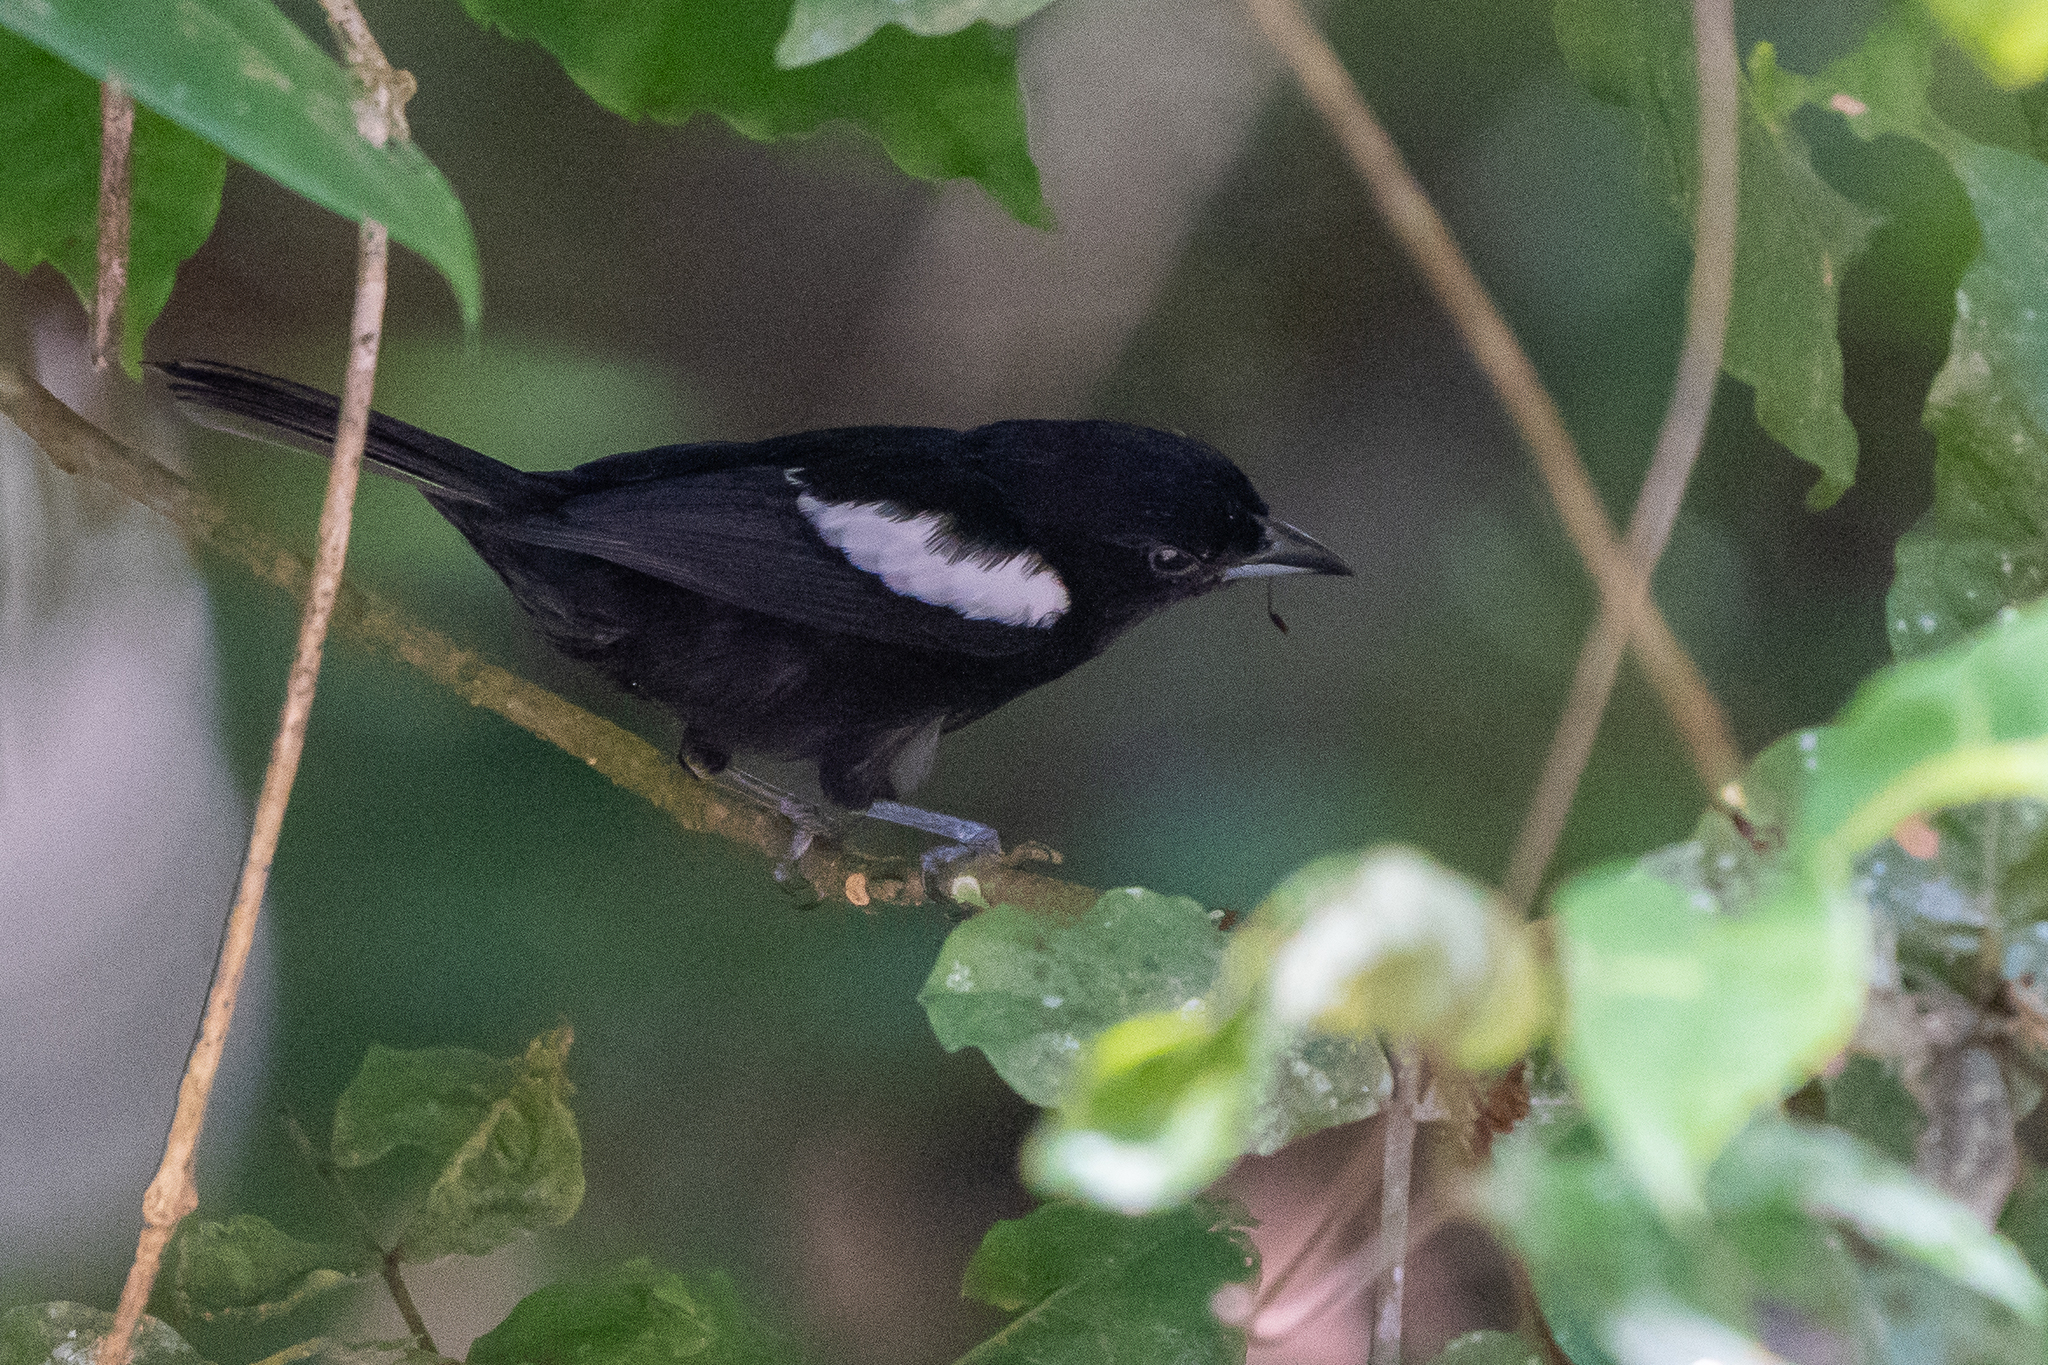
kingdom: Animalia
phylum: Chordata
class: Aves
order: Passeriformes
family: Thraupidae
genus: Loriotus
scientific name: Loriotus luctuosus
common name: White-shouldered tanager
